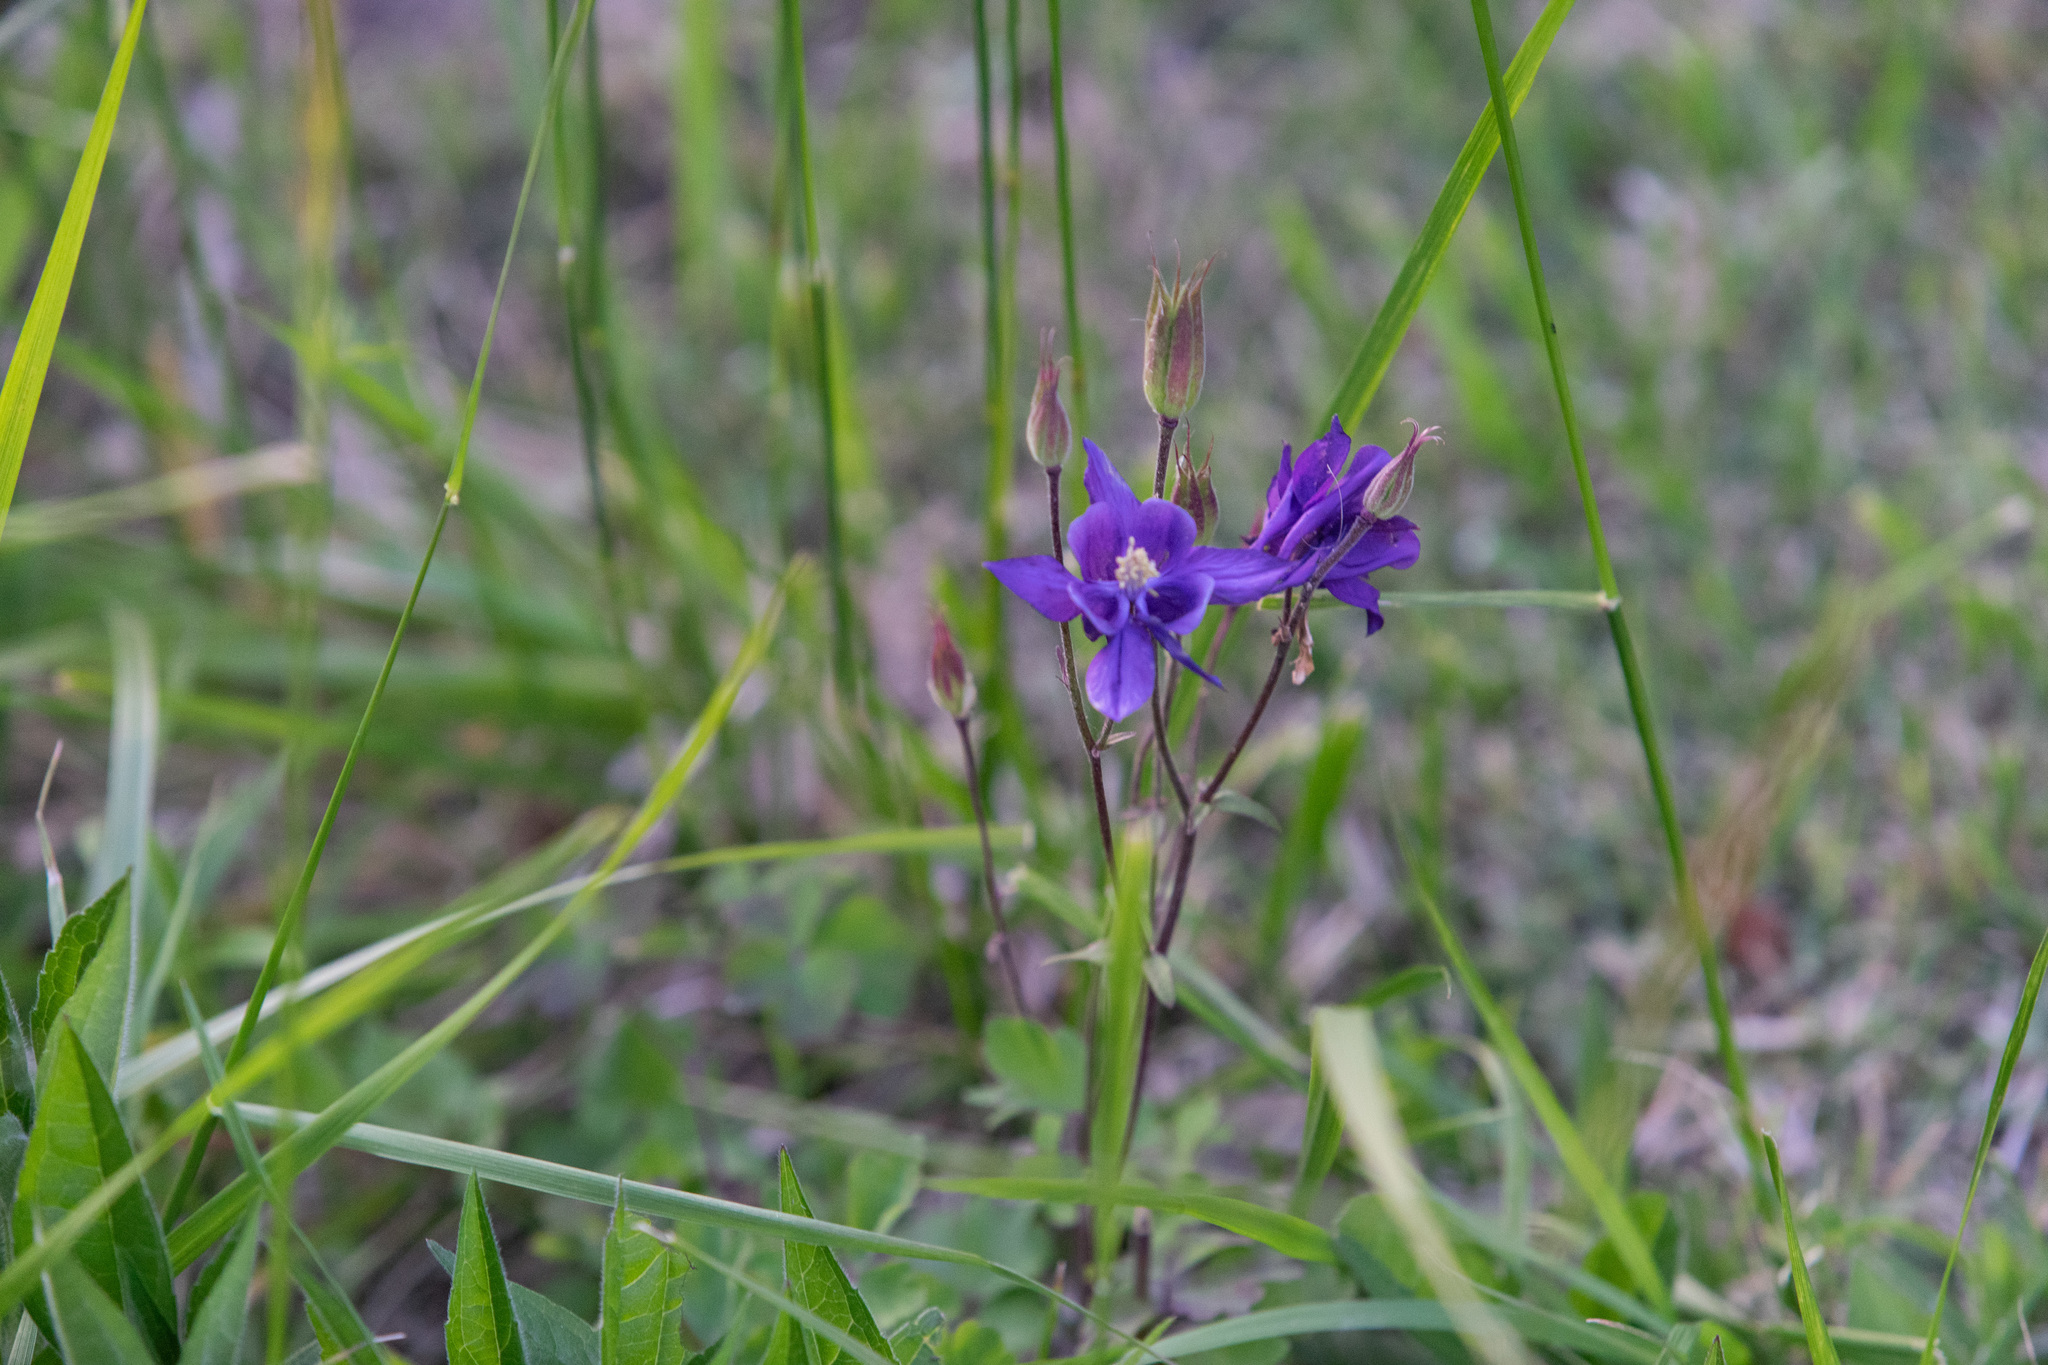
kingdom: Plantae
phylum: Tracheophyta
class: Magnoliopsida
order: Ranunculales
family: Ranunculaceae
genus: Aquilegia
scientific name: Aquilegia vulgaris
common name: Columbine
